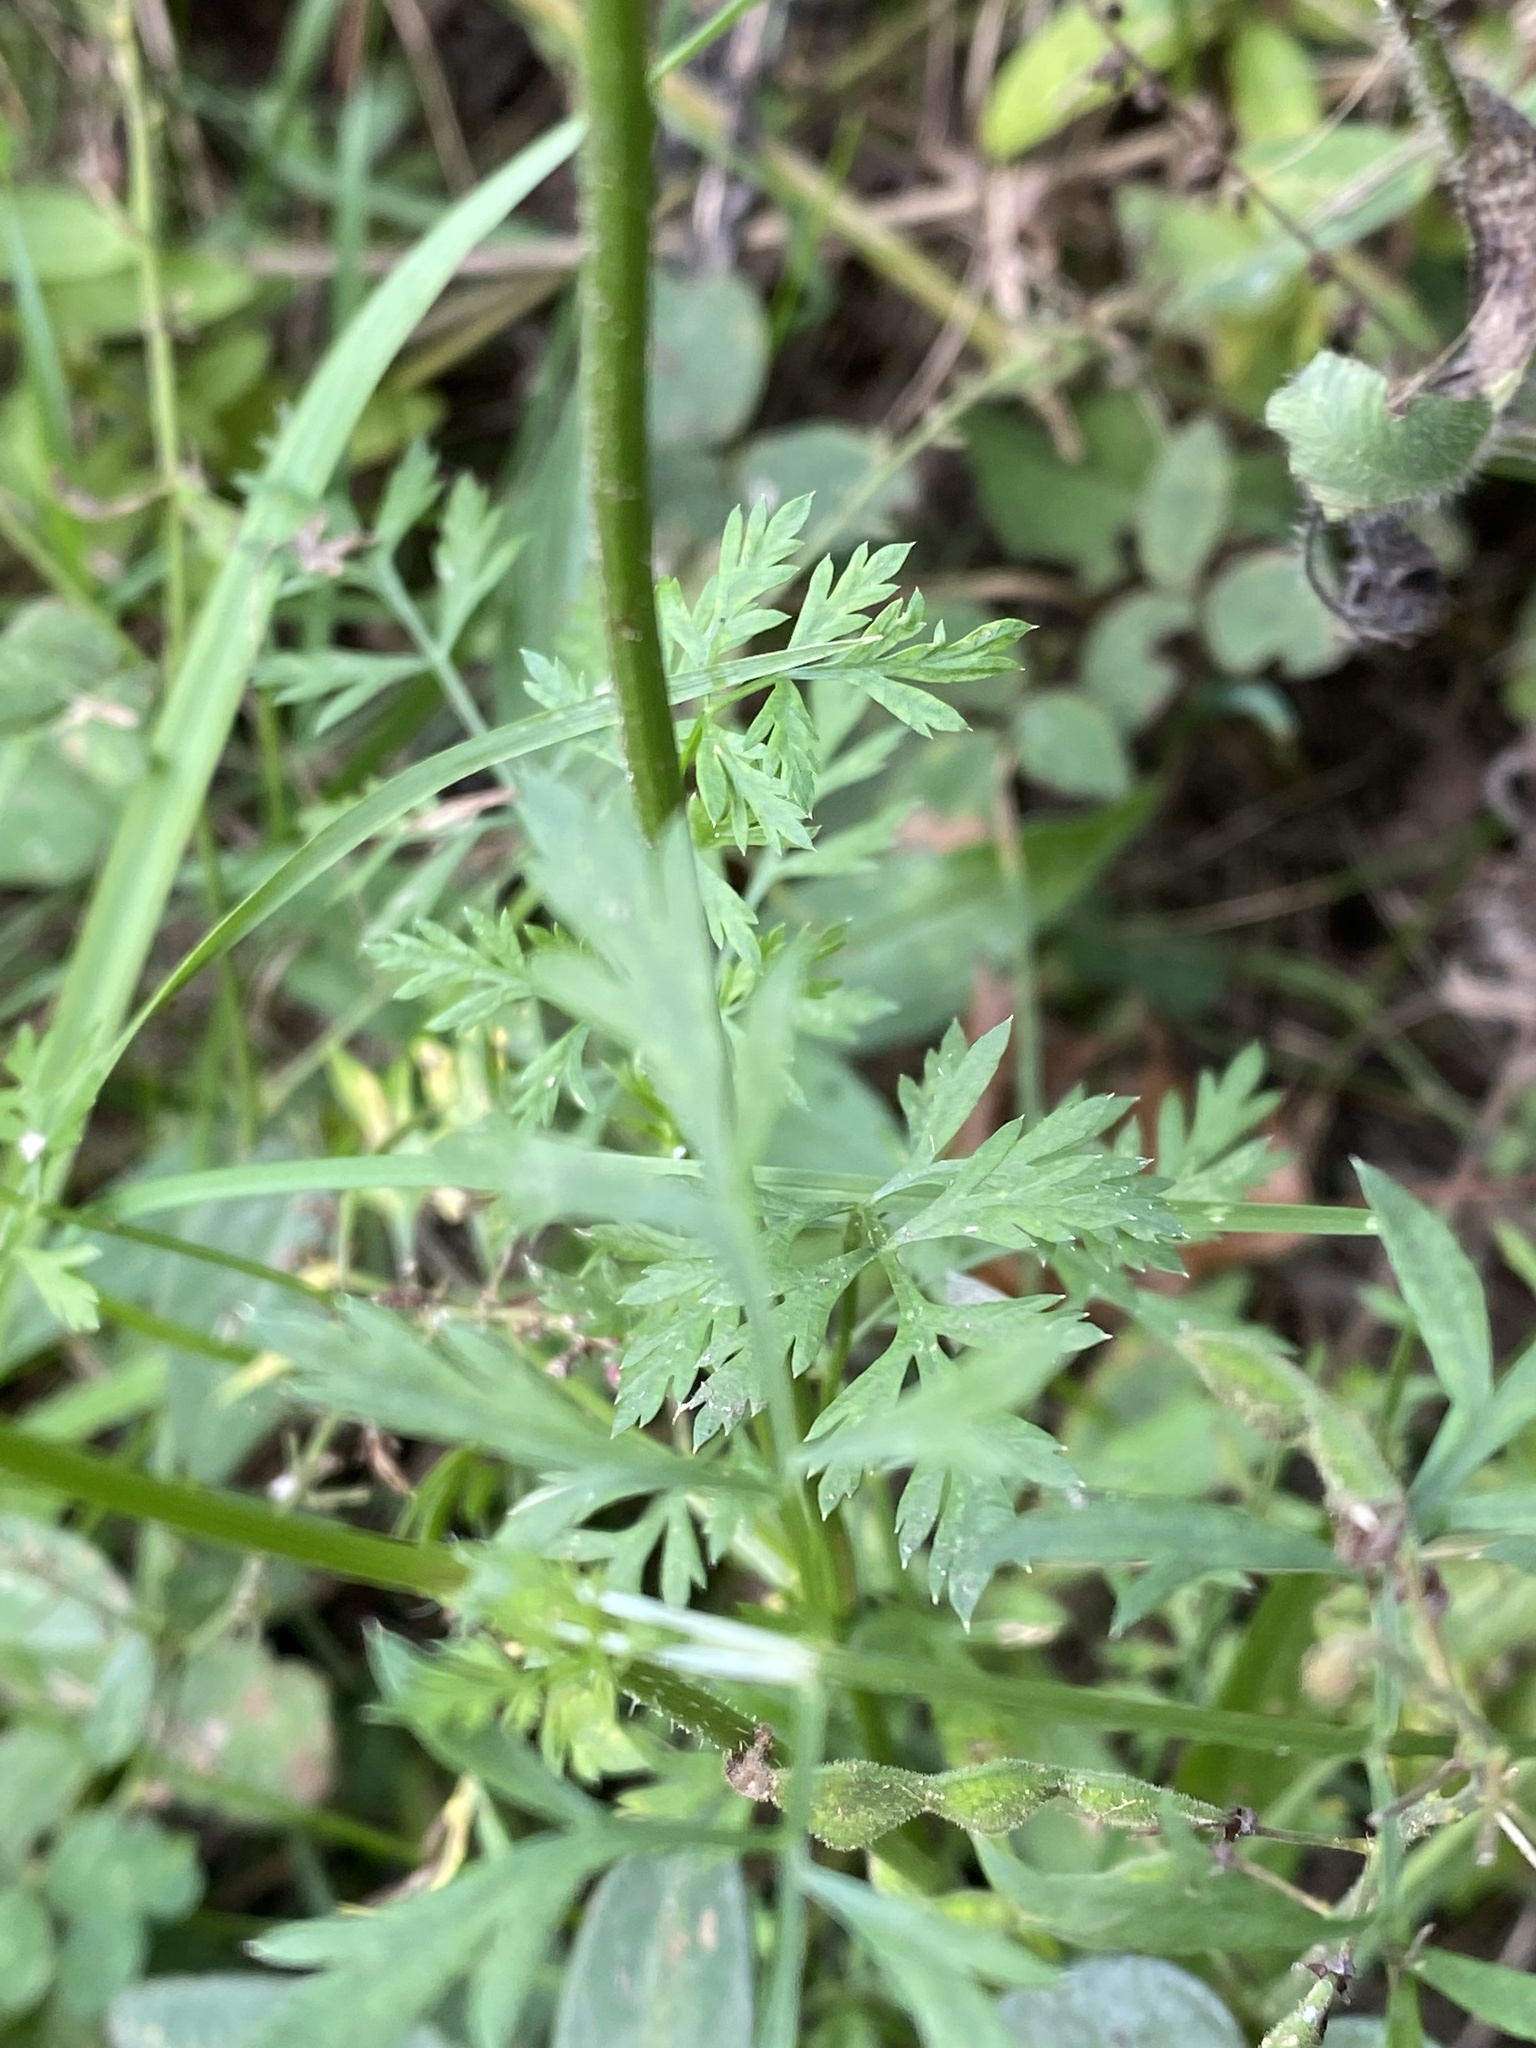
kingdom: Plantae
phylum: Tracheophyta
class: Magnoliopsida
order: Apiales
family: Apiaceae
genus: Daucus
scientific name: Daucus carota
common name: Wild carrot
